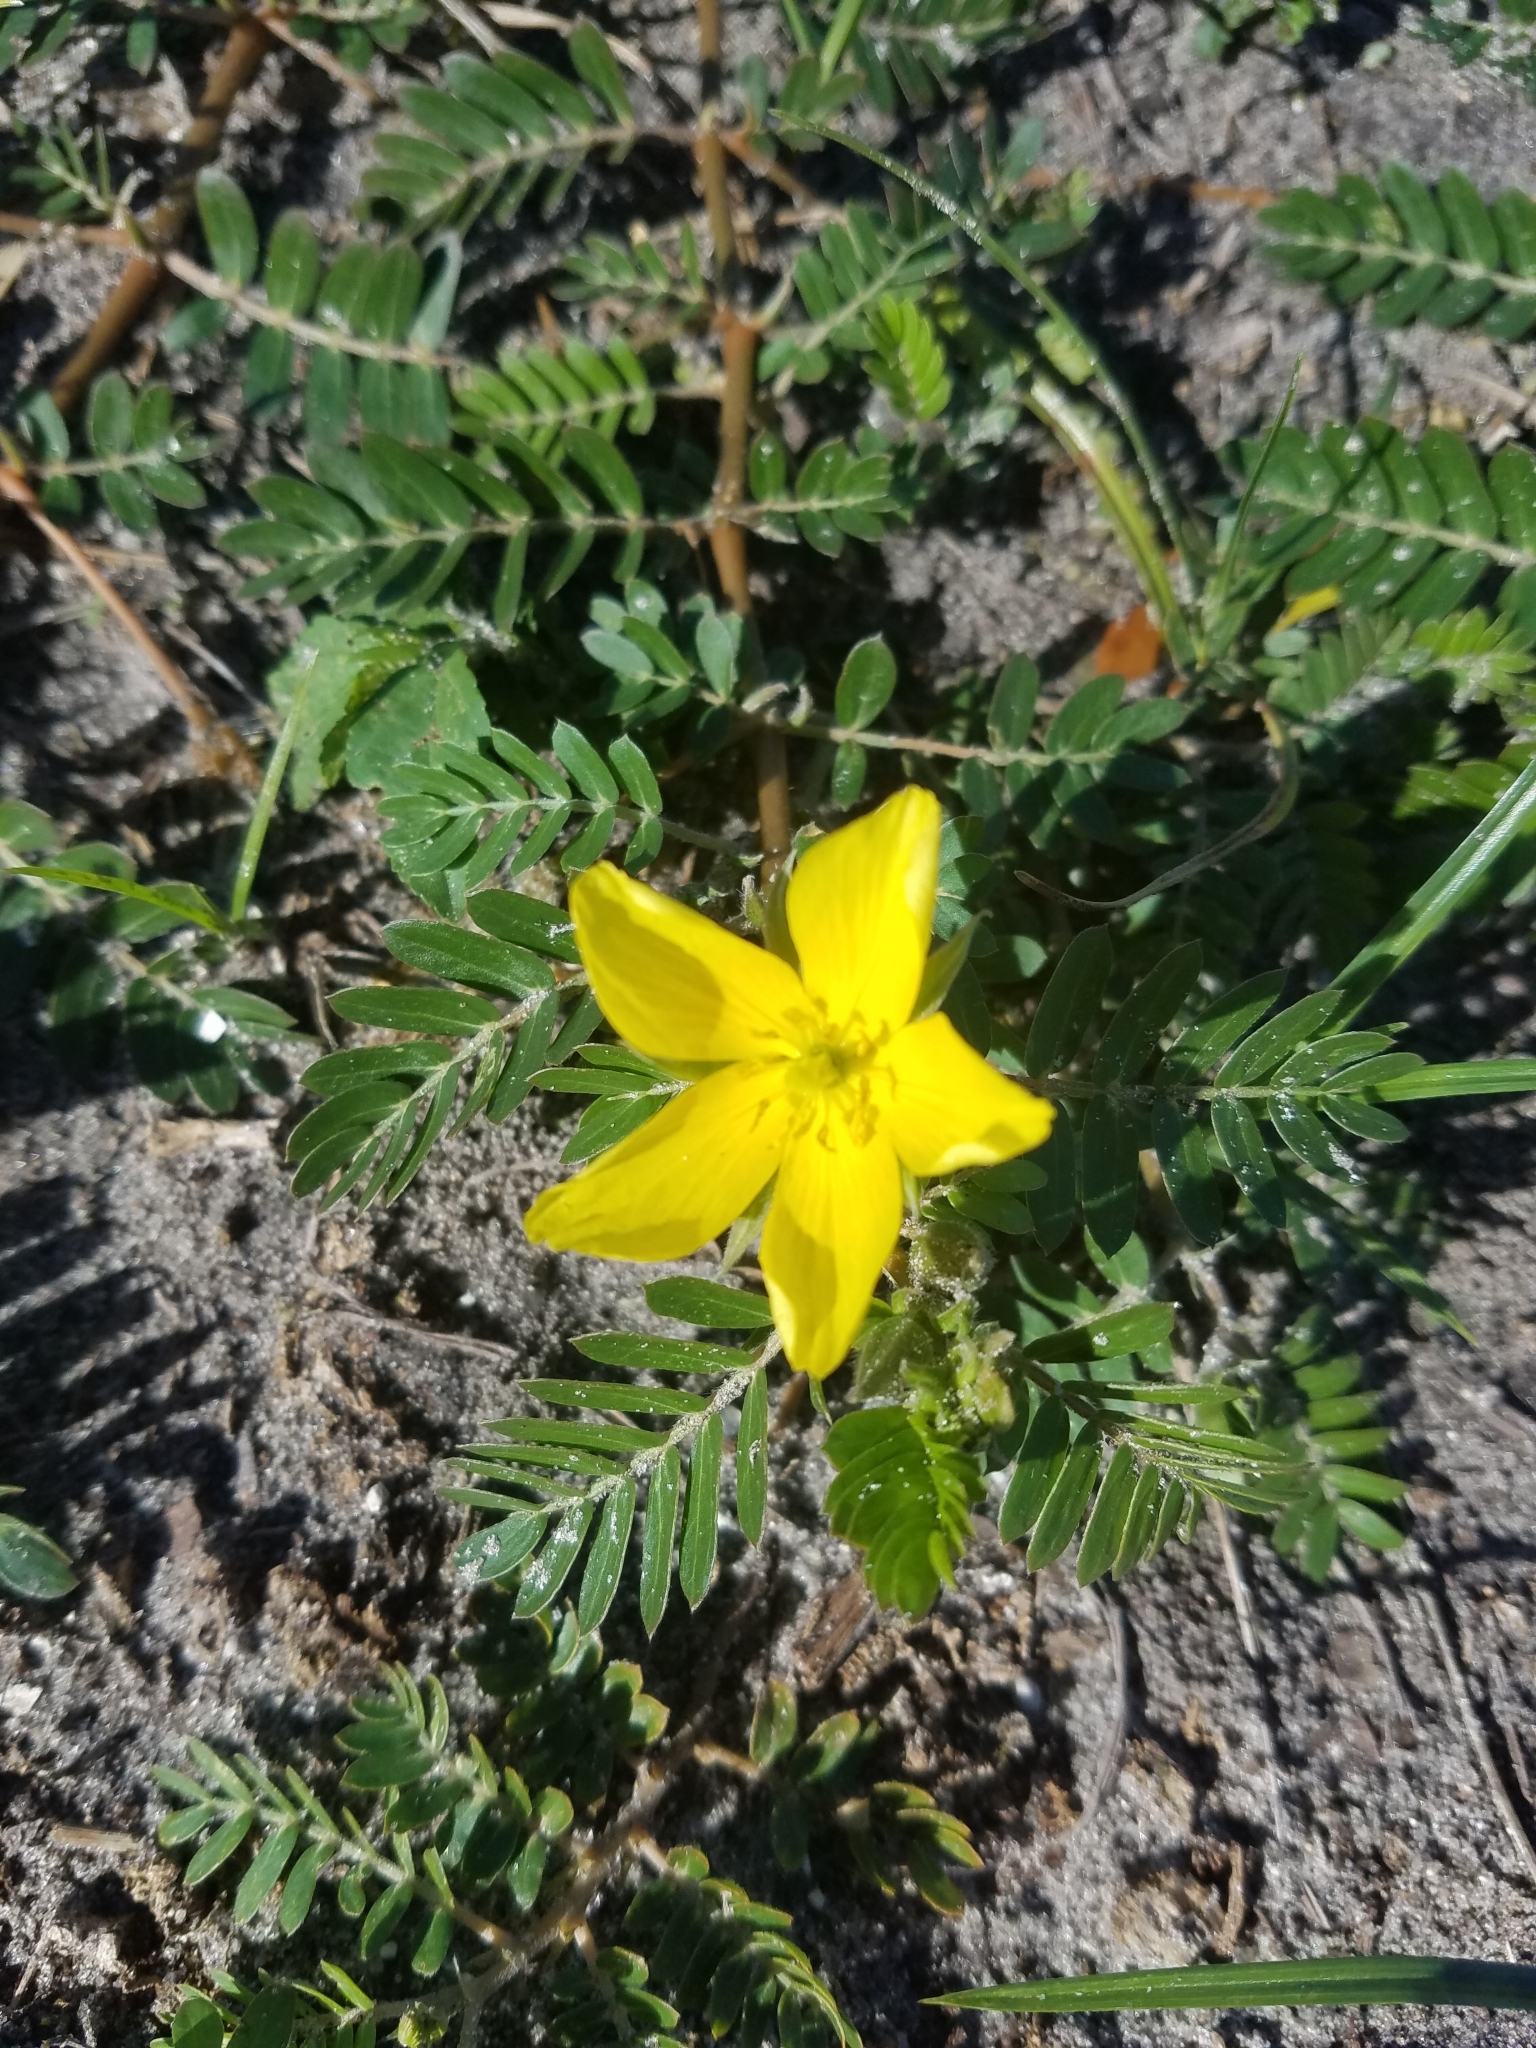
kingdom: Plantae
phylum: Tracheophyta
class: Magnoliopsida
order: Zygophyllales
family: Zygophyllaceae
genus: Tribulus
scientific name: Tribulus cistoides
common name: Jamaican feverplant
